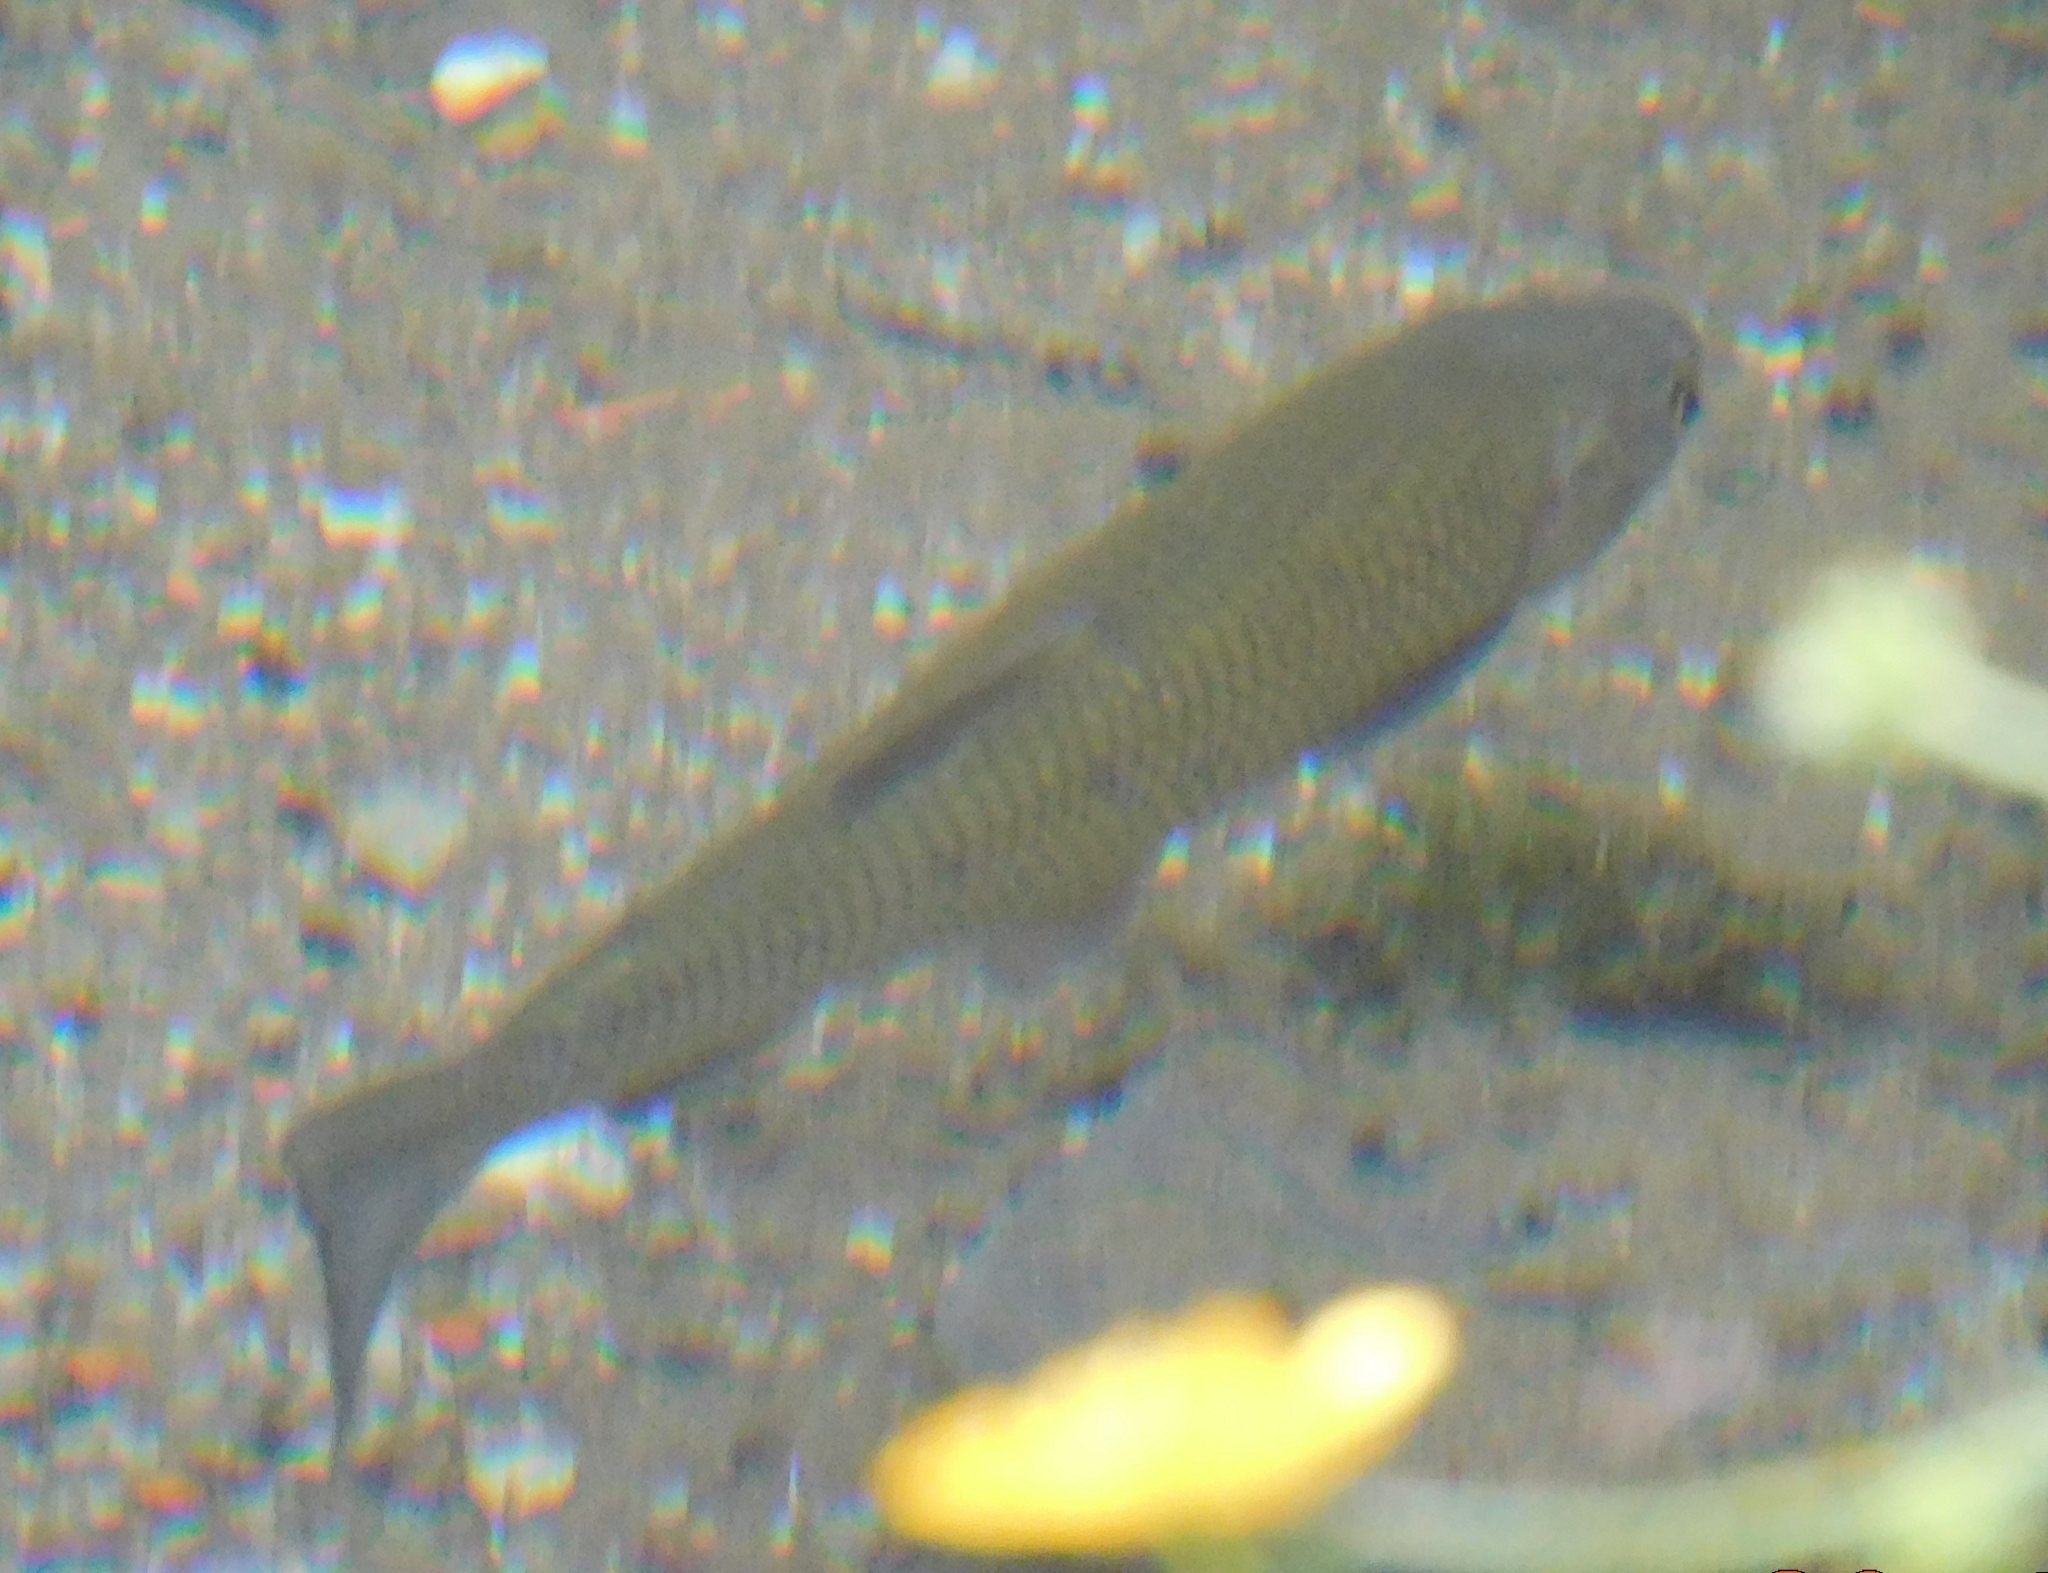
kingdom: Animalia
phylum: Chordata
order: Cypriniformes
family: Cyprinidae
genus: Squalius
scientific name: Squalius squalus
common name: Italian chub
